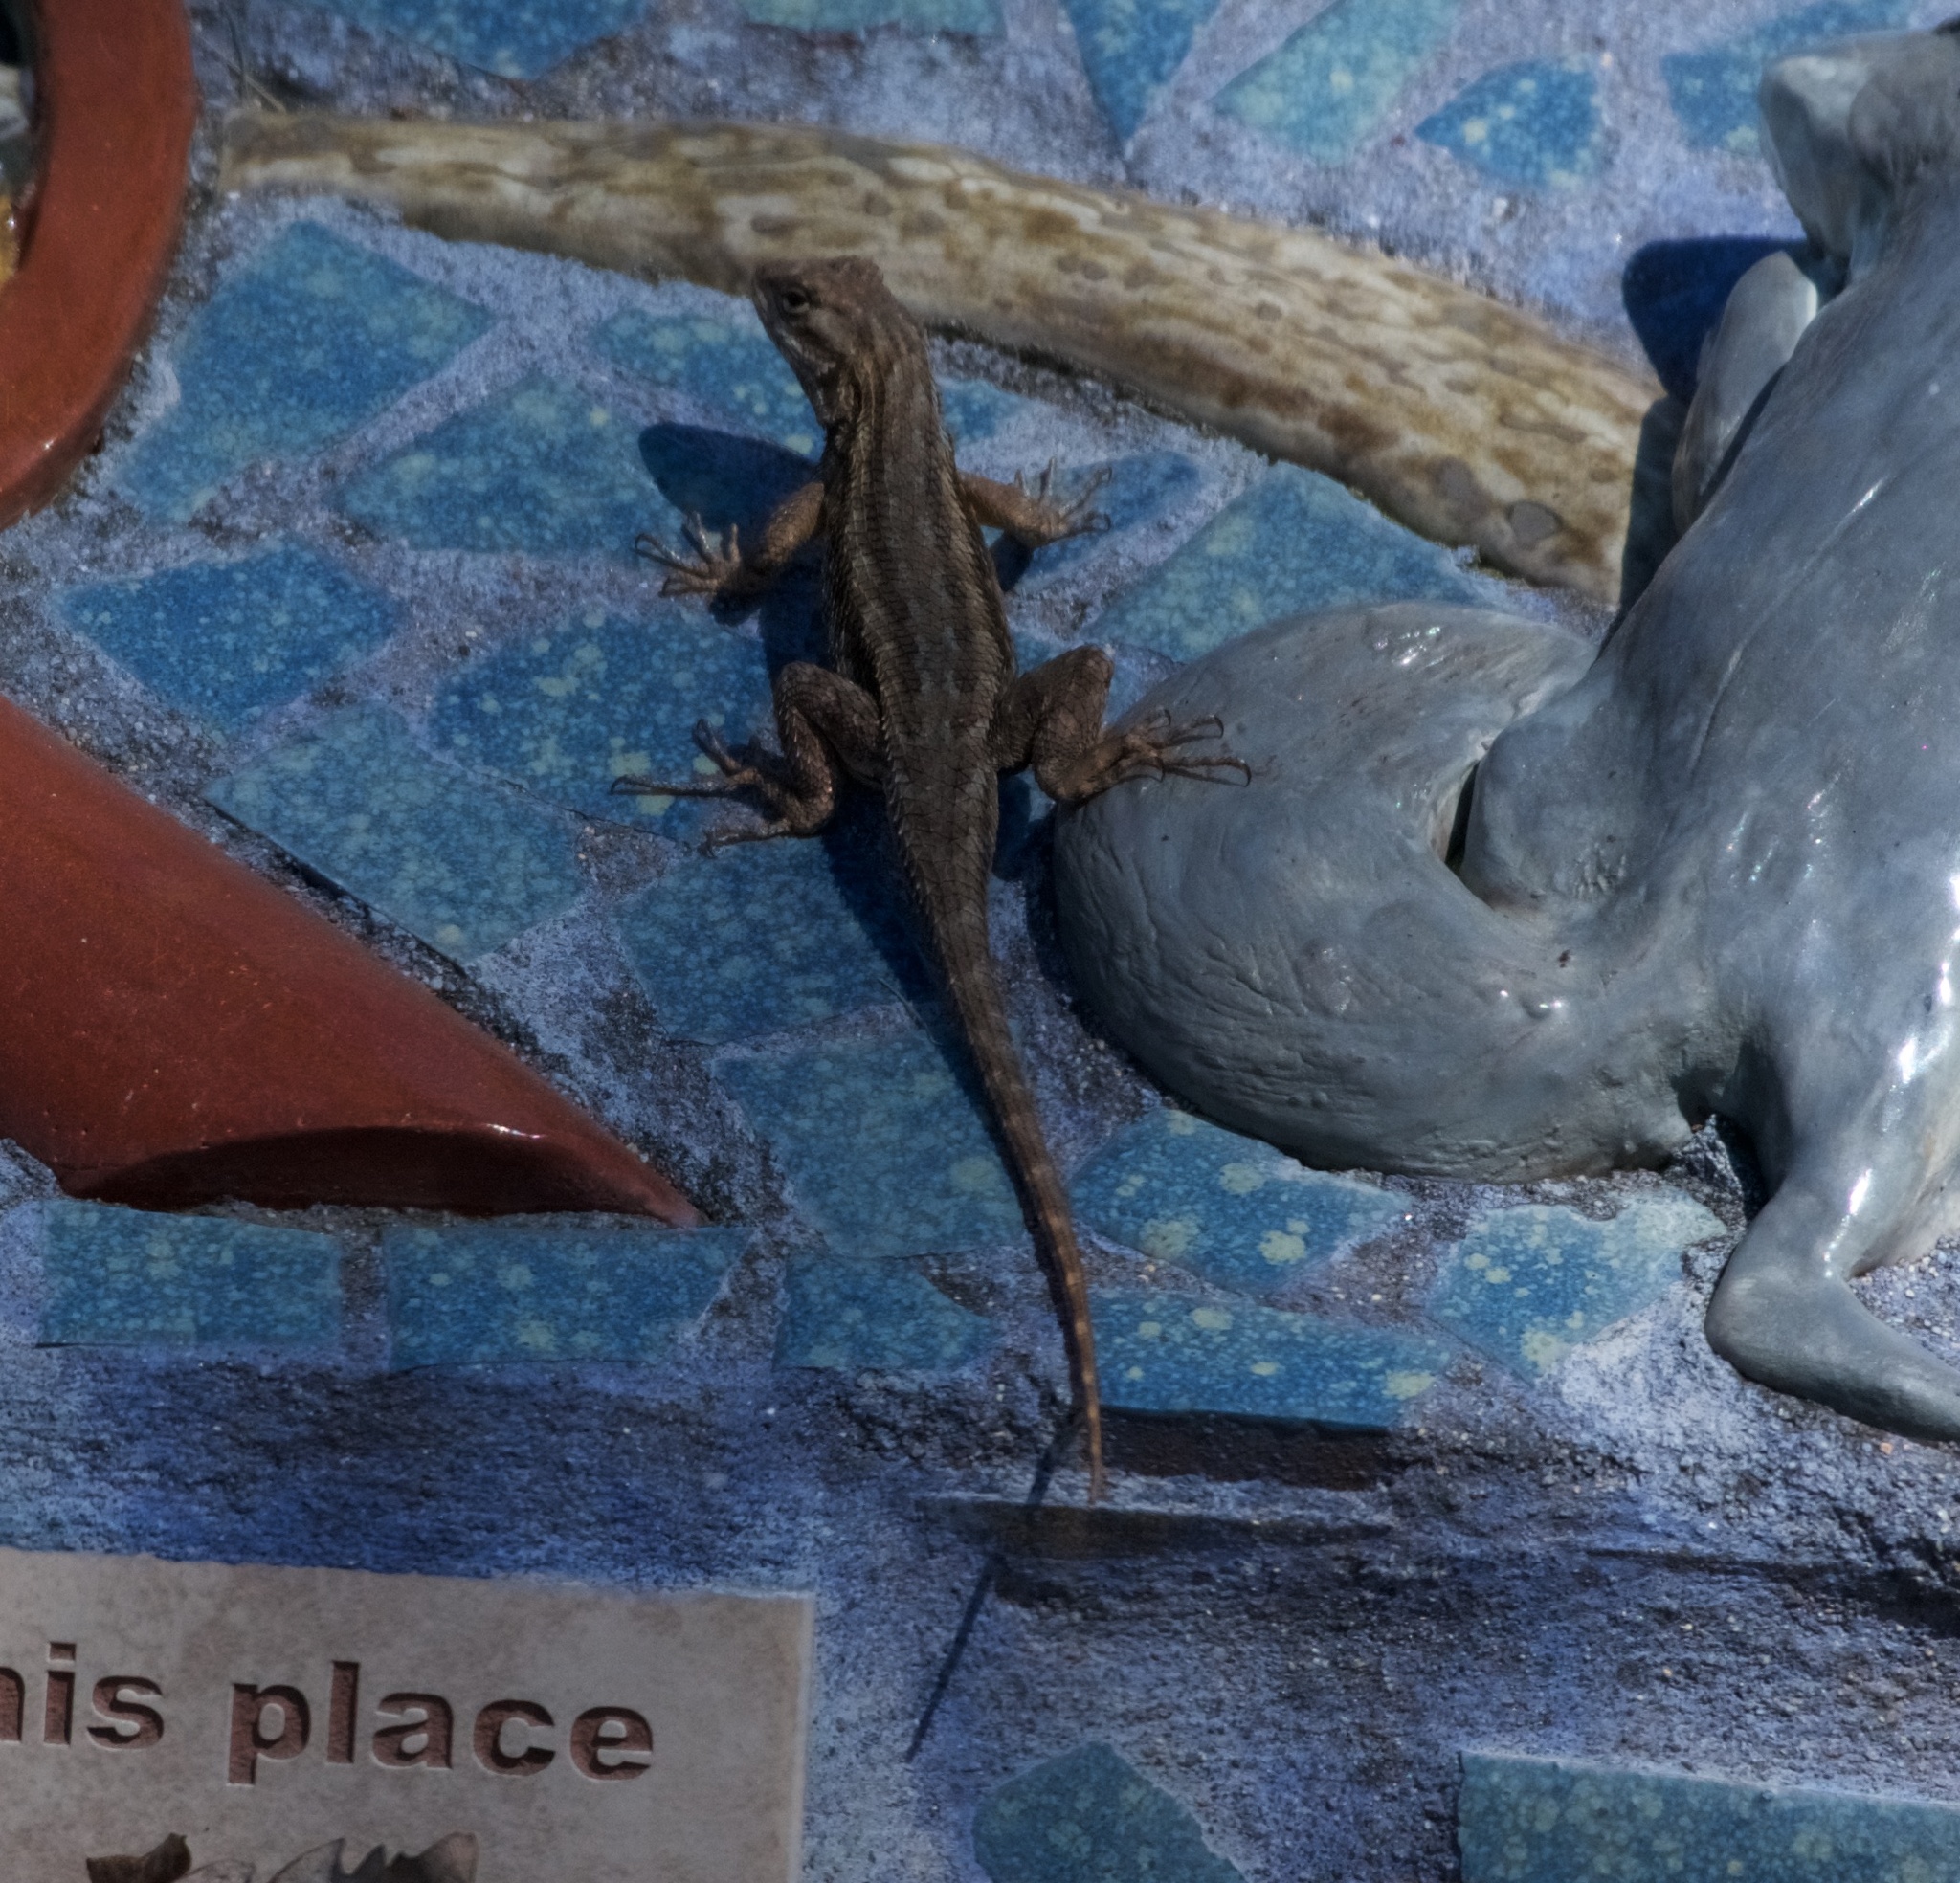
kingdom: Animalia
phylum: Chordata
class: Squamata
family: Phrynosomatidae
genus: Sceloporus
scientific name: Sceloporus occidentalis
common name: Western fence lizard
